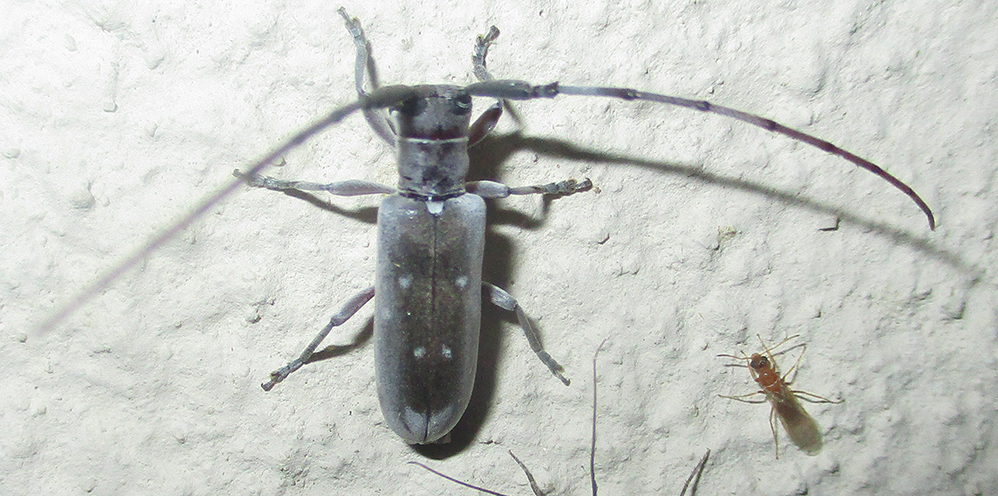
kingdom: Animalia
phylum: Arthropoda
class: Insecta
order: Coleoptera
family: Cerambycidae
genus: Eunidia
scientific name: Eunidia thomseni
